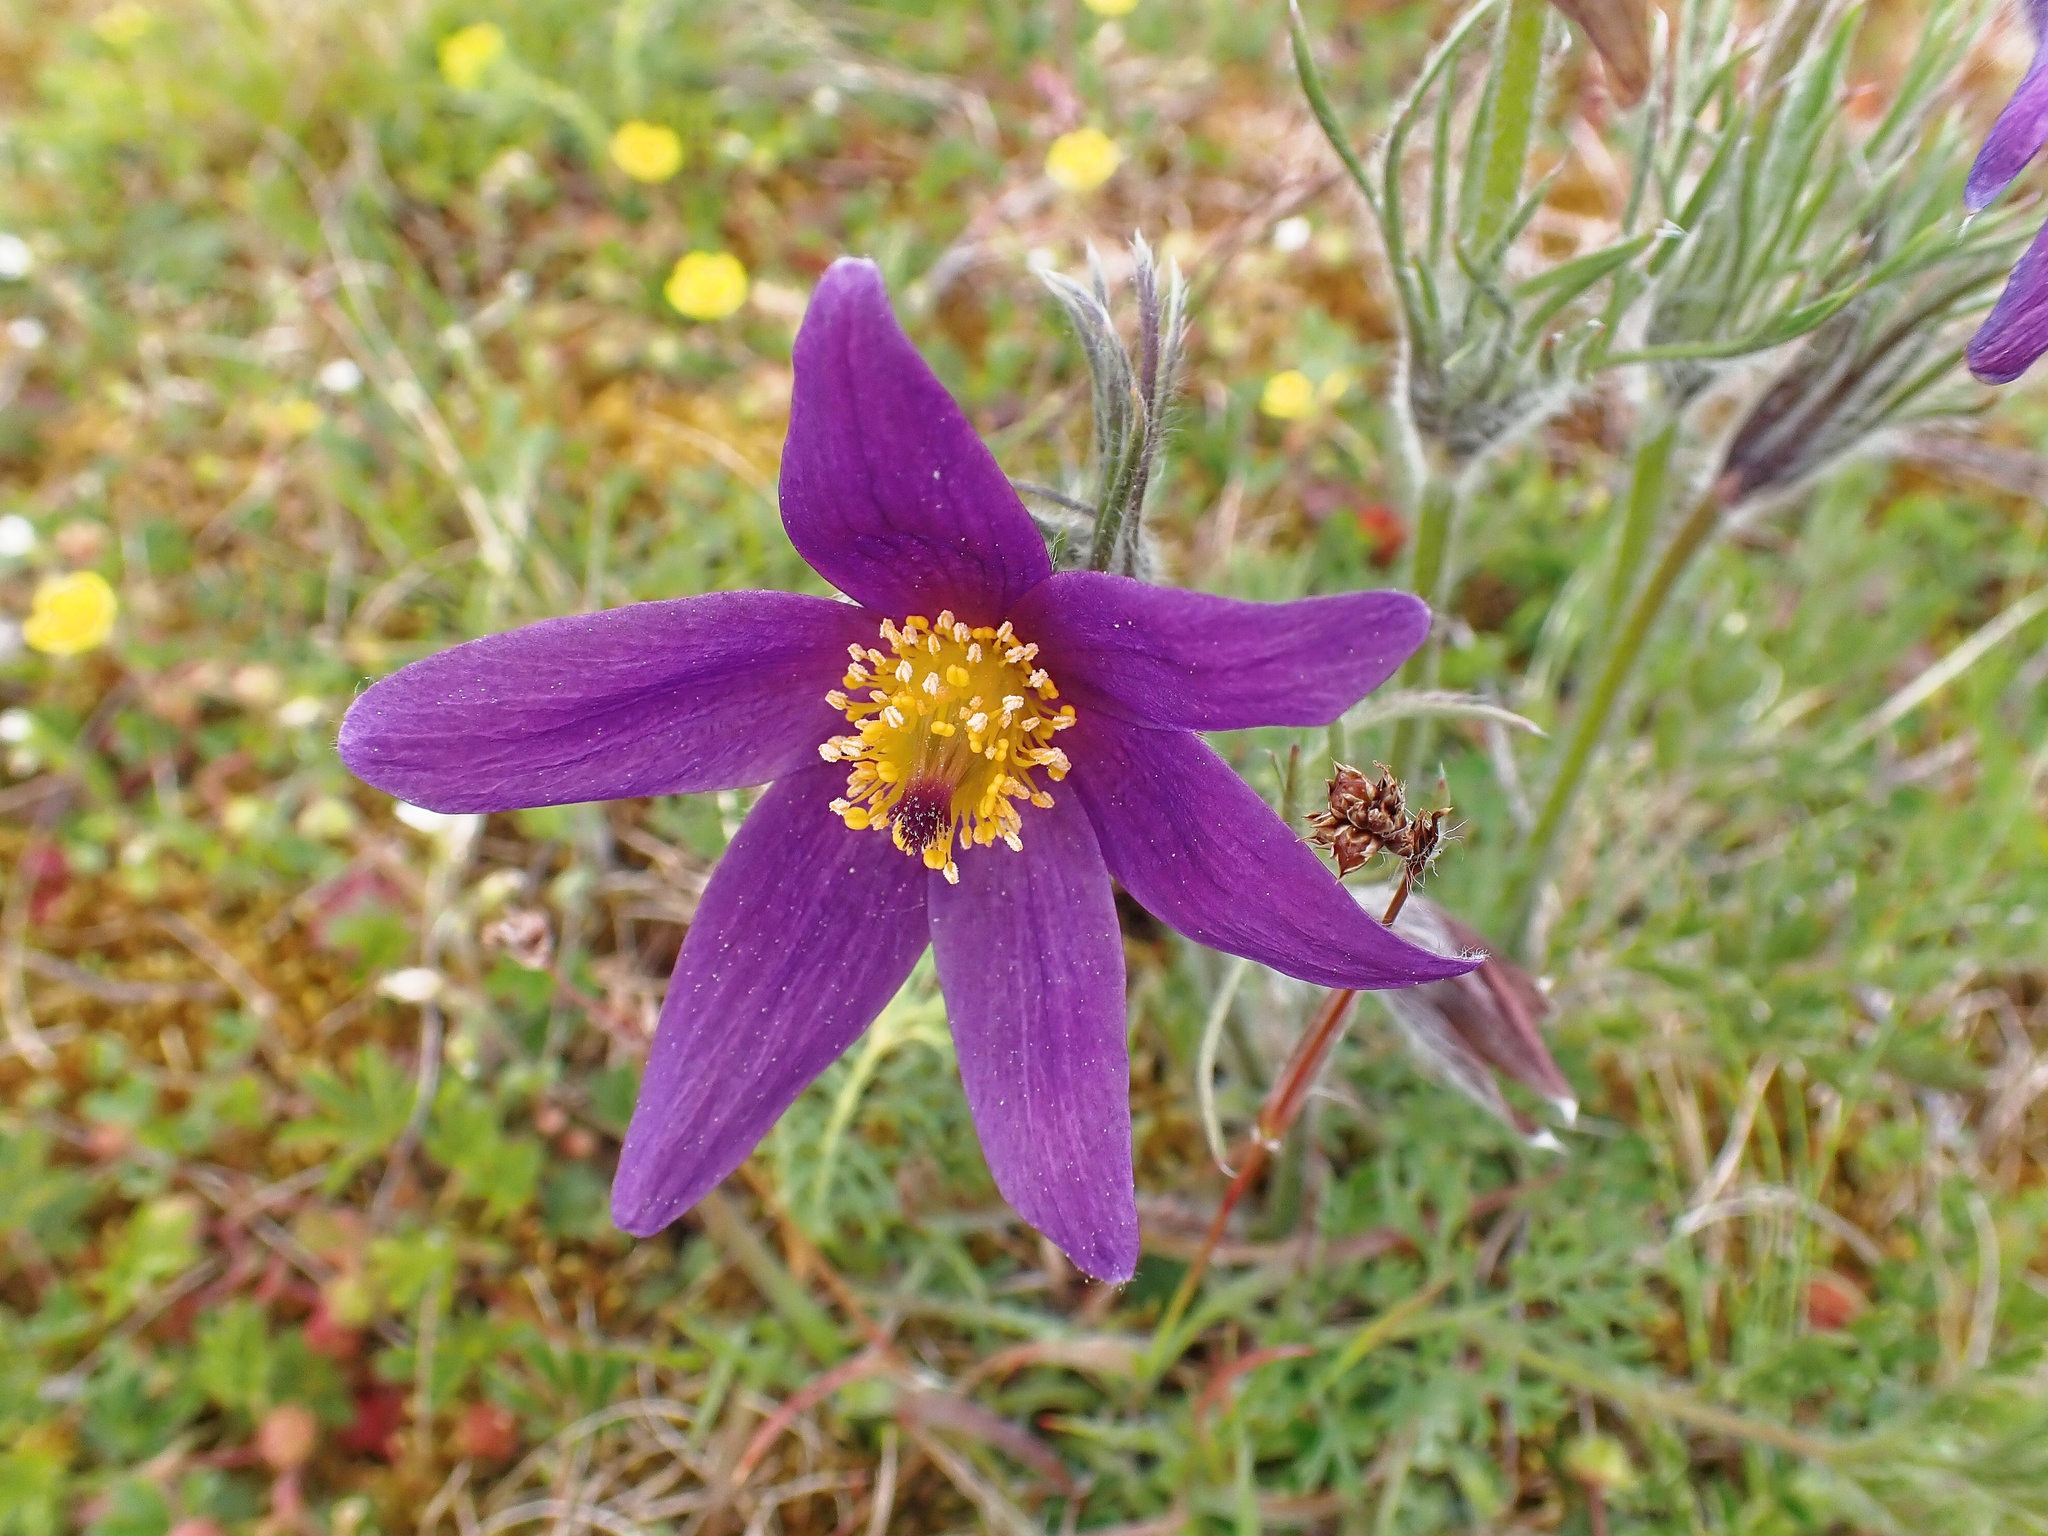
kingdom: Plantae
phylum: Tracheophyta
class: Magnoliopsida
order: Ranunculales
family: Ranunculaceae
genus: Pulsatilla
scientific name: Pulsatilla vulgaris
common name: Pasqueflower
